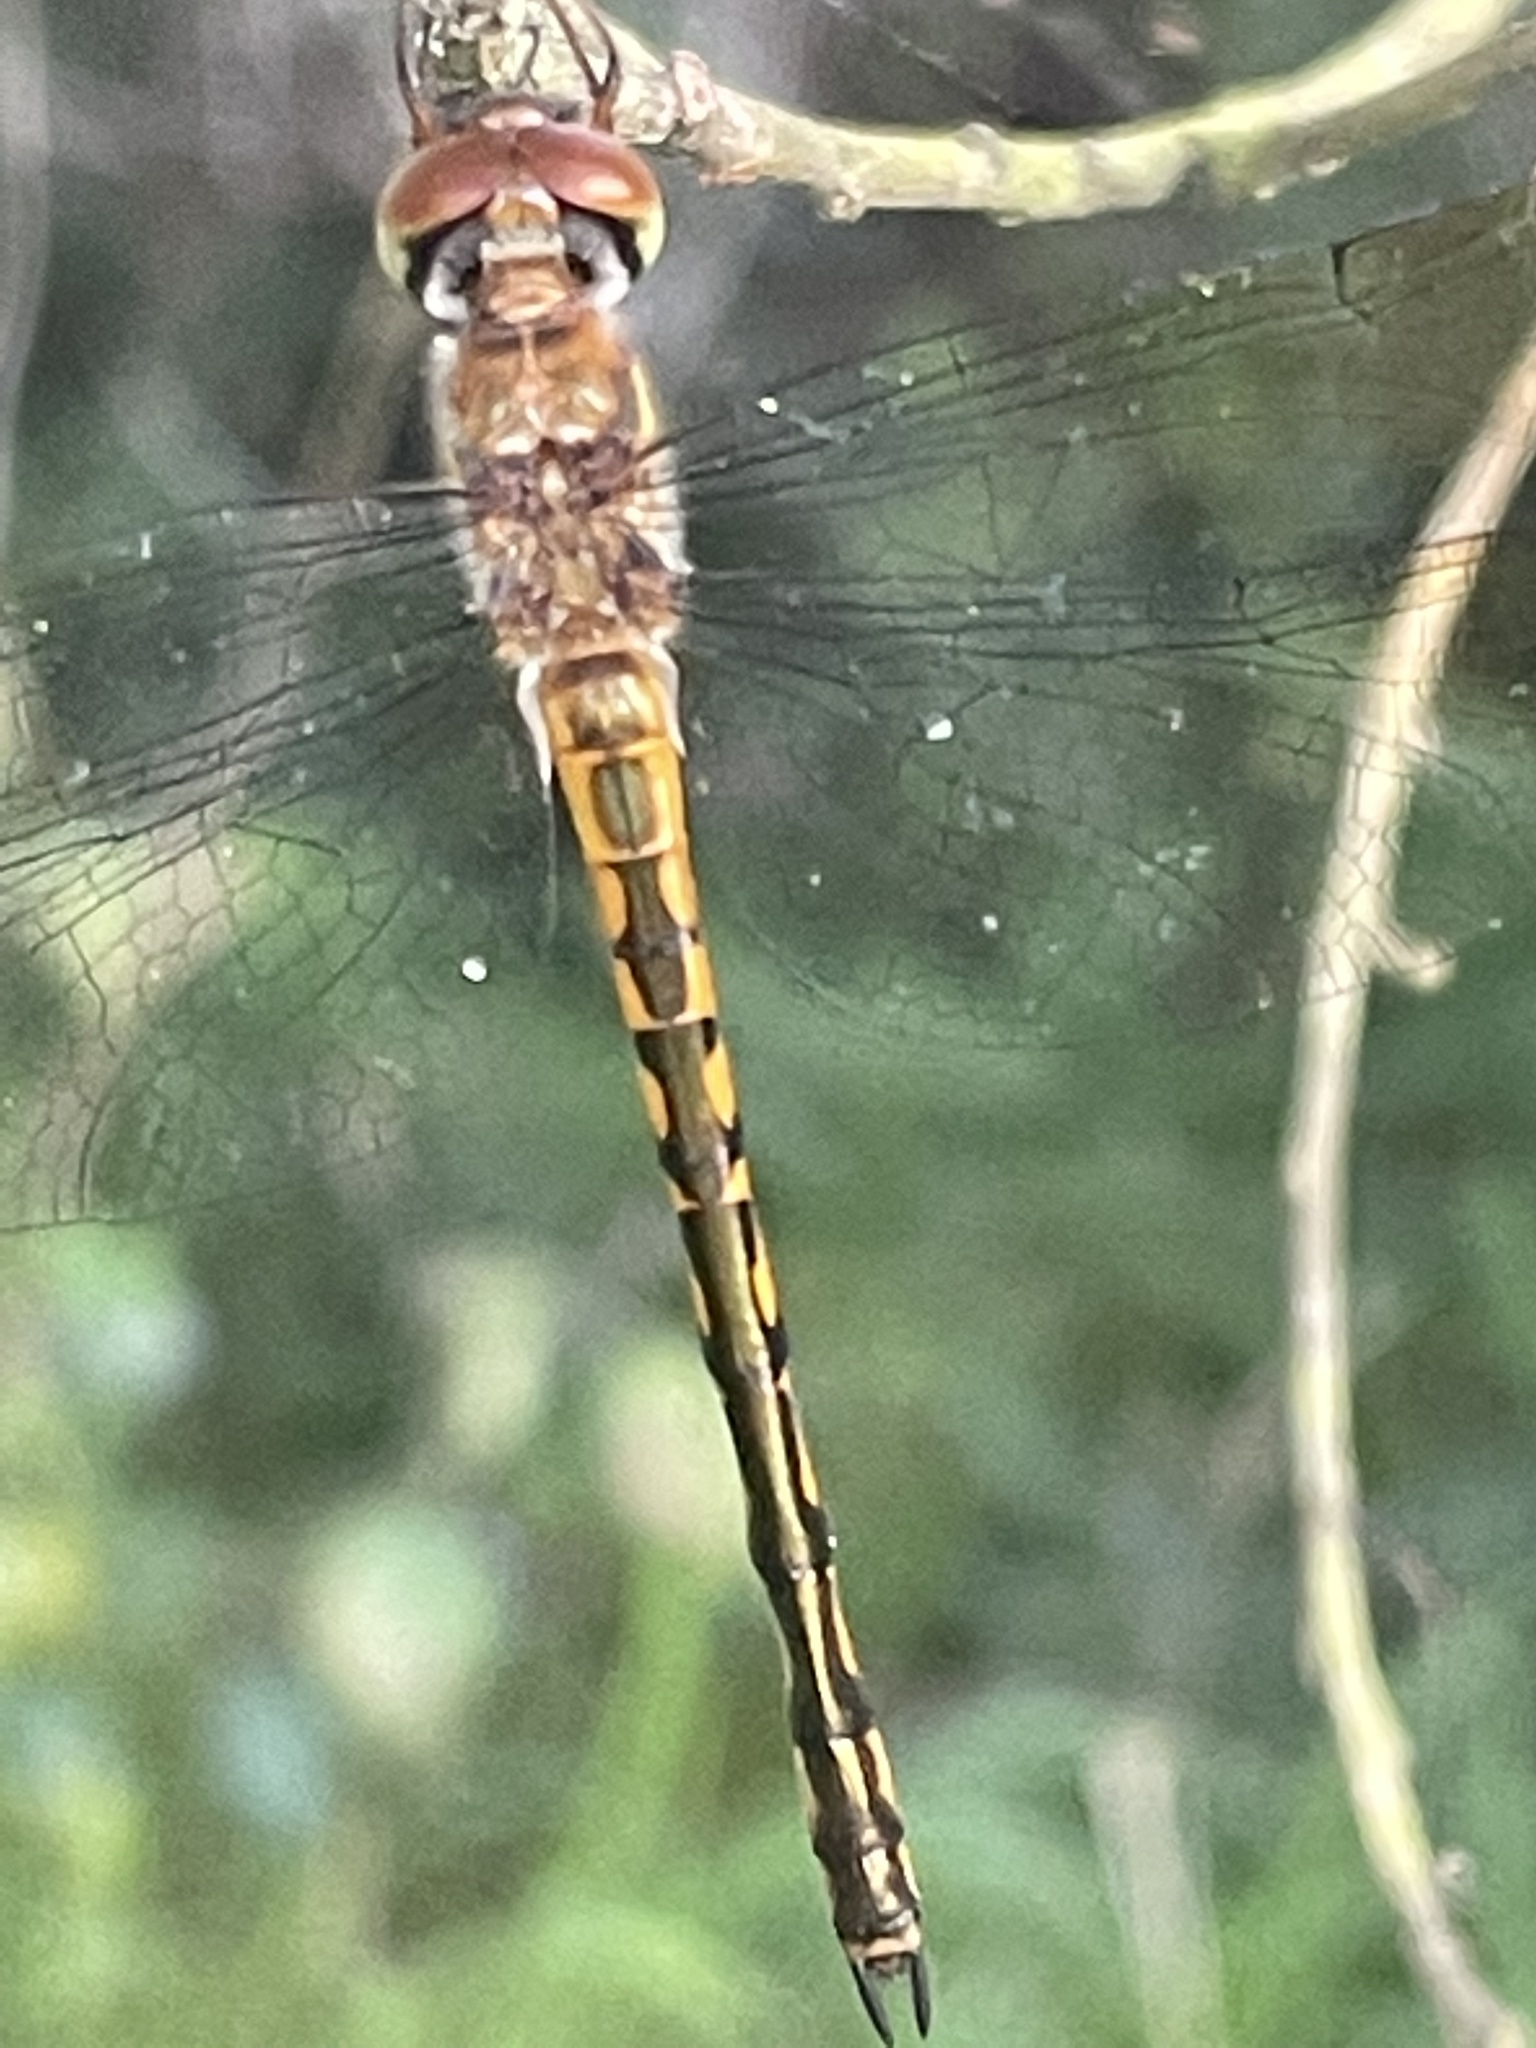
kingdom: Animalia
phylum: Arthropoda
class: Insecta
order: Odonata
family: Corduliidae
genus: Hemicordulia
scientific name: Hemicordulia continentalis
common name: Fat-bellied emerald
